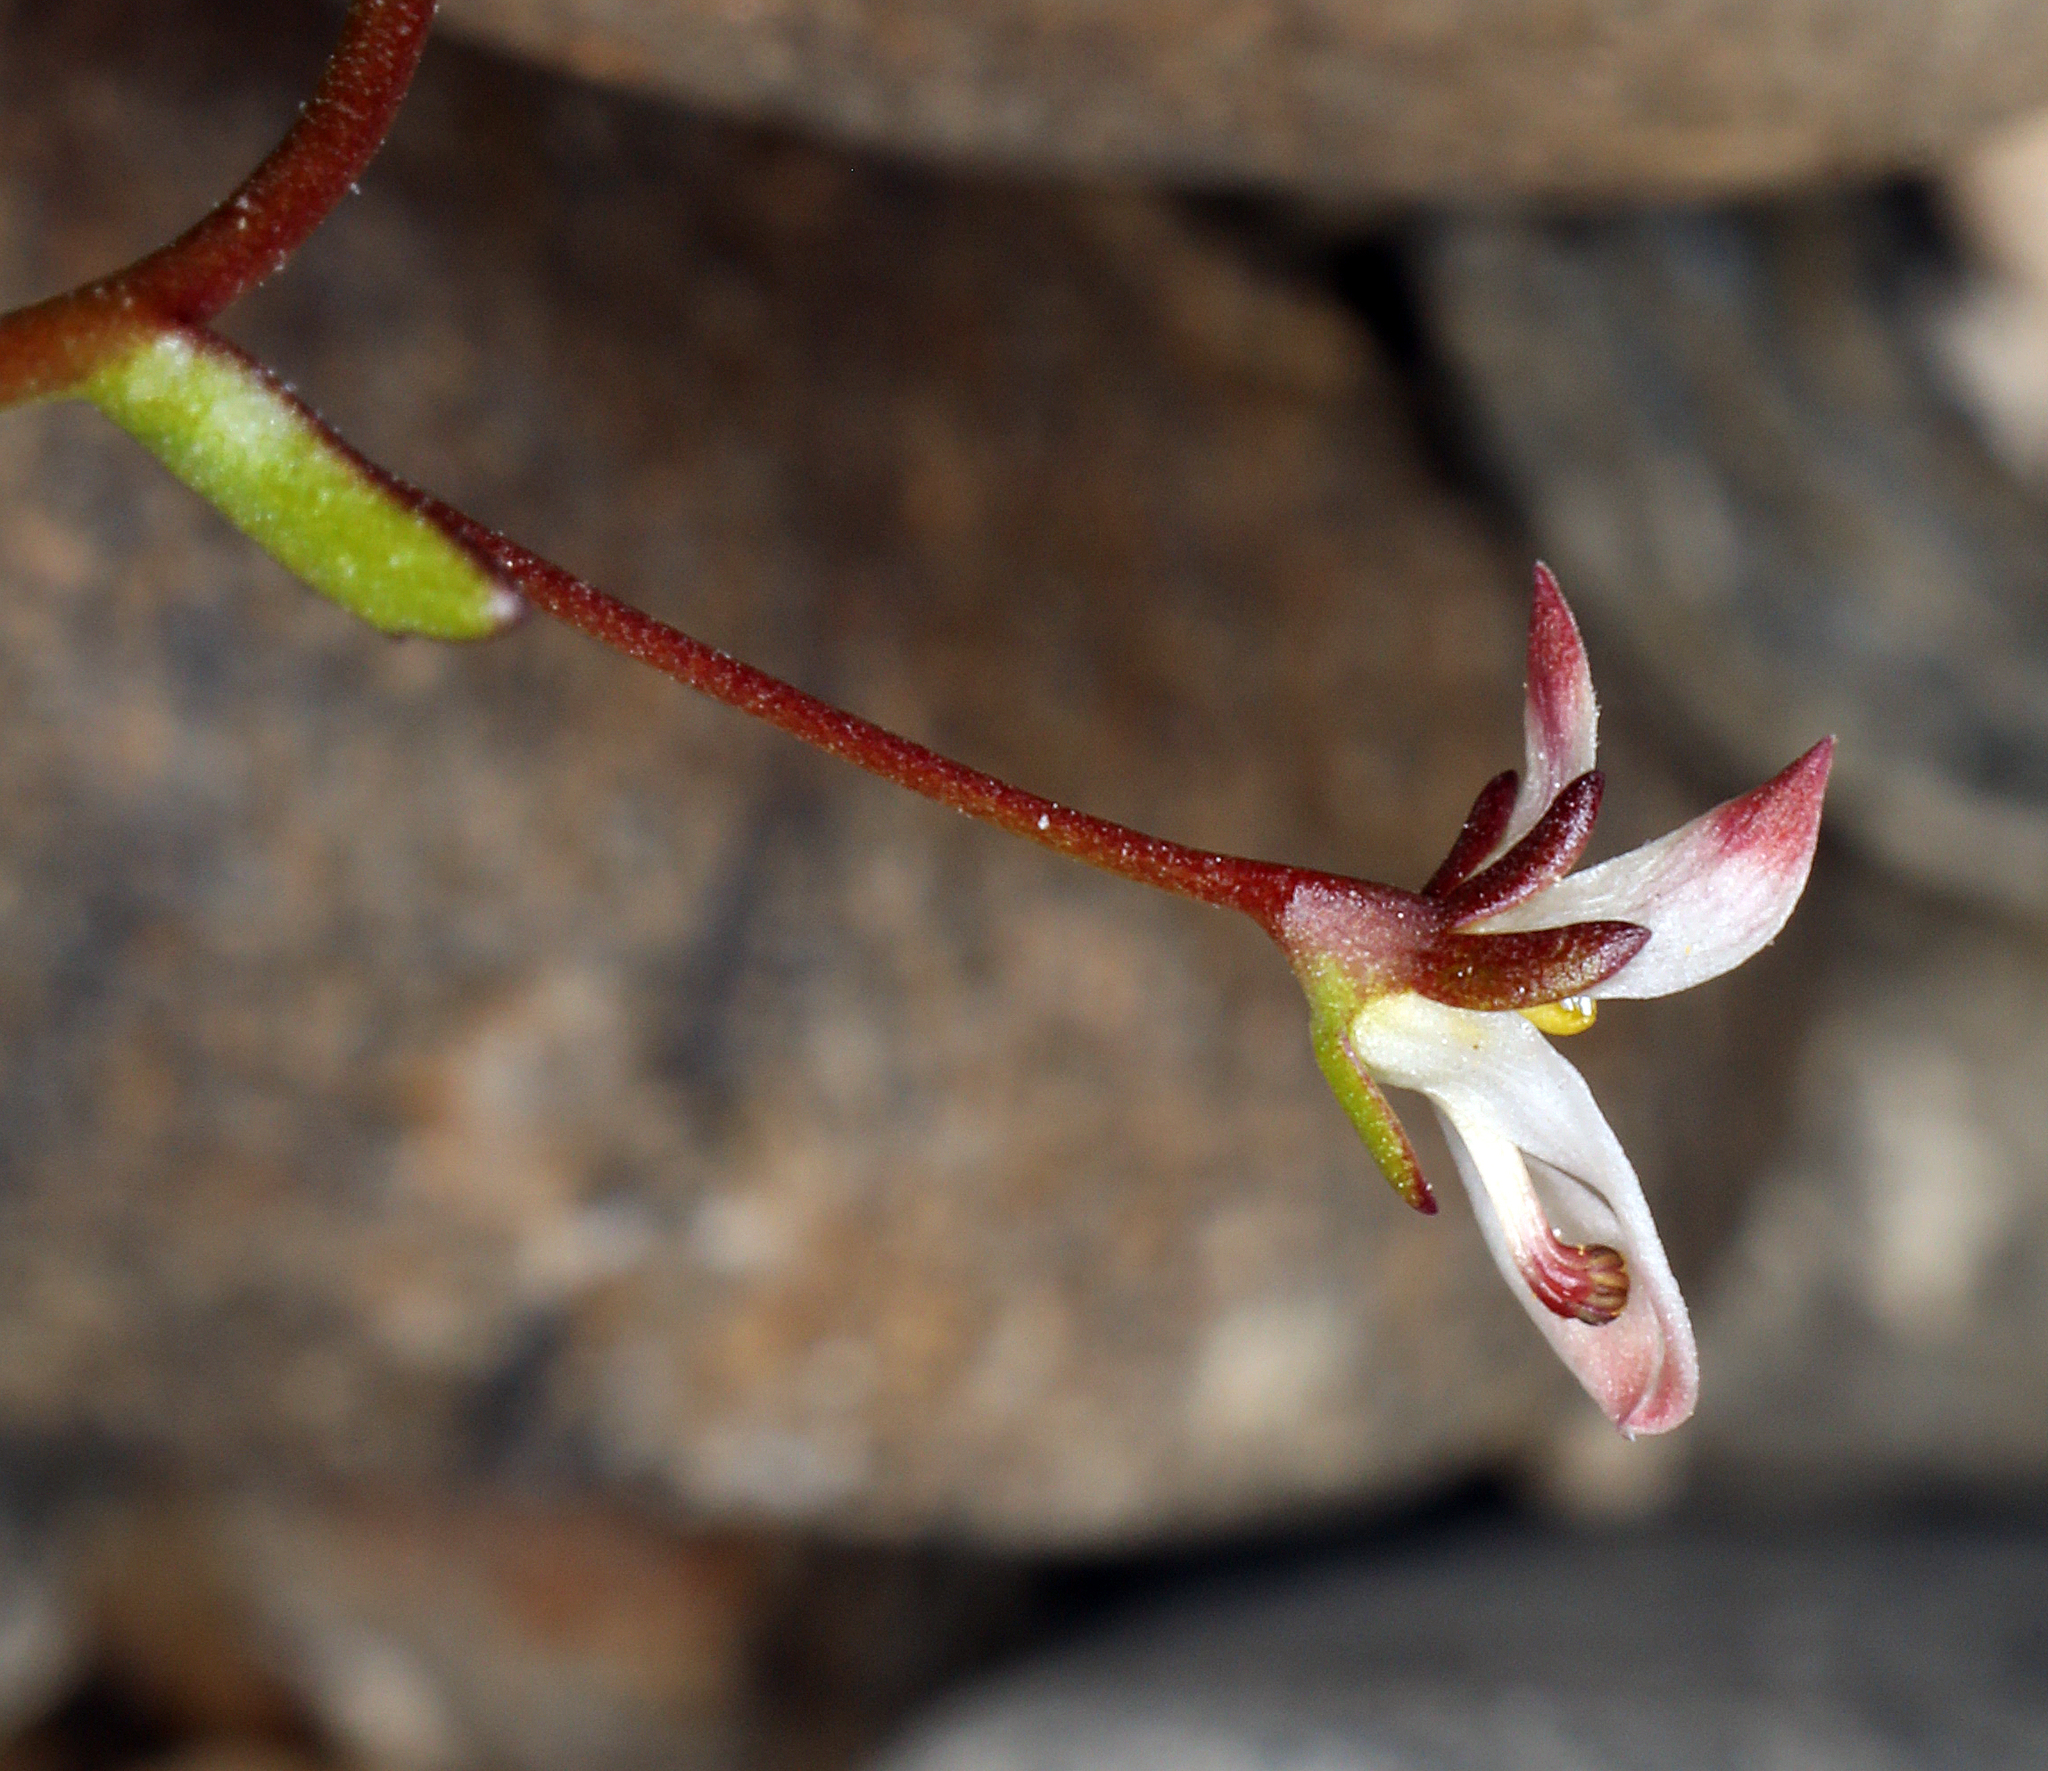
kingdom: Plantae
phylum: Tracheophyta
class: Magnoliopsida
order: Asterales
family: Campanulaceae
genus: Nemacladus
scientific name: Nemacladus orientalis
